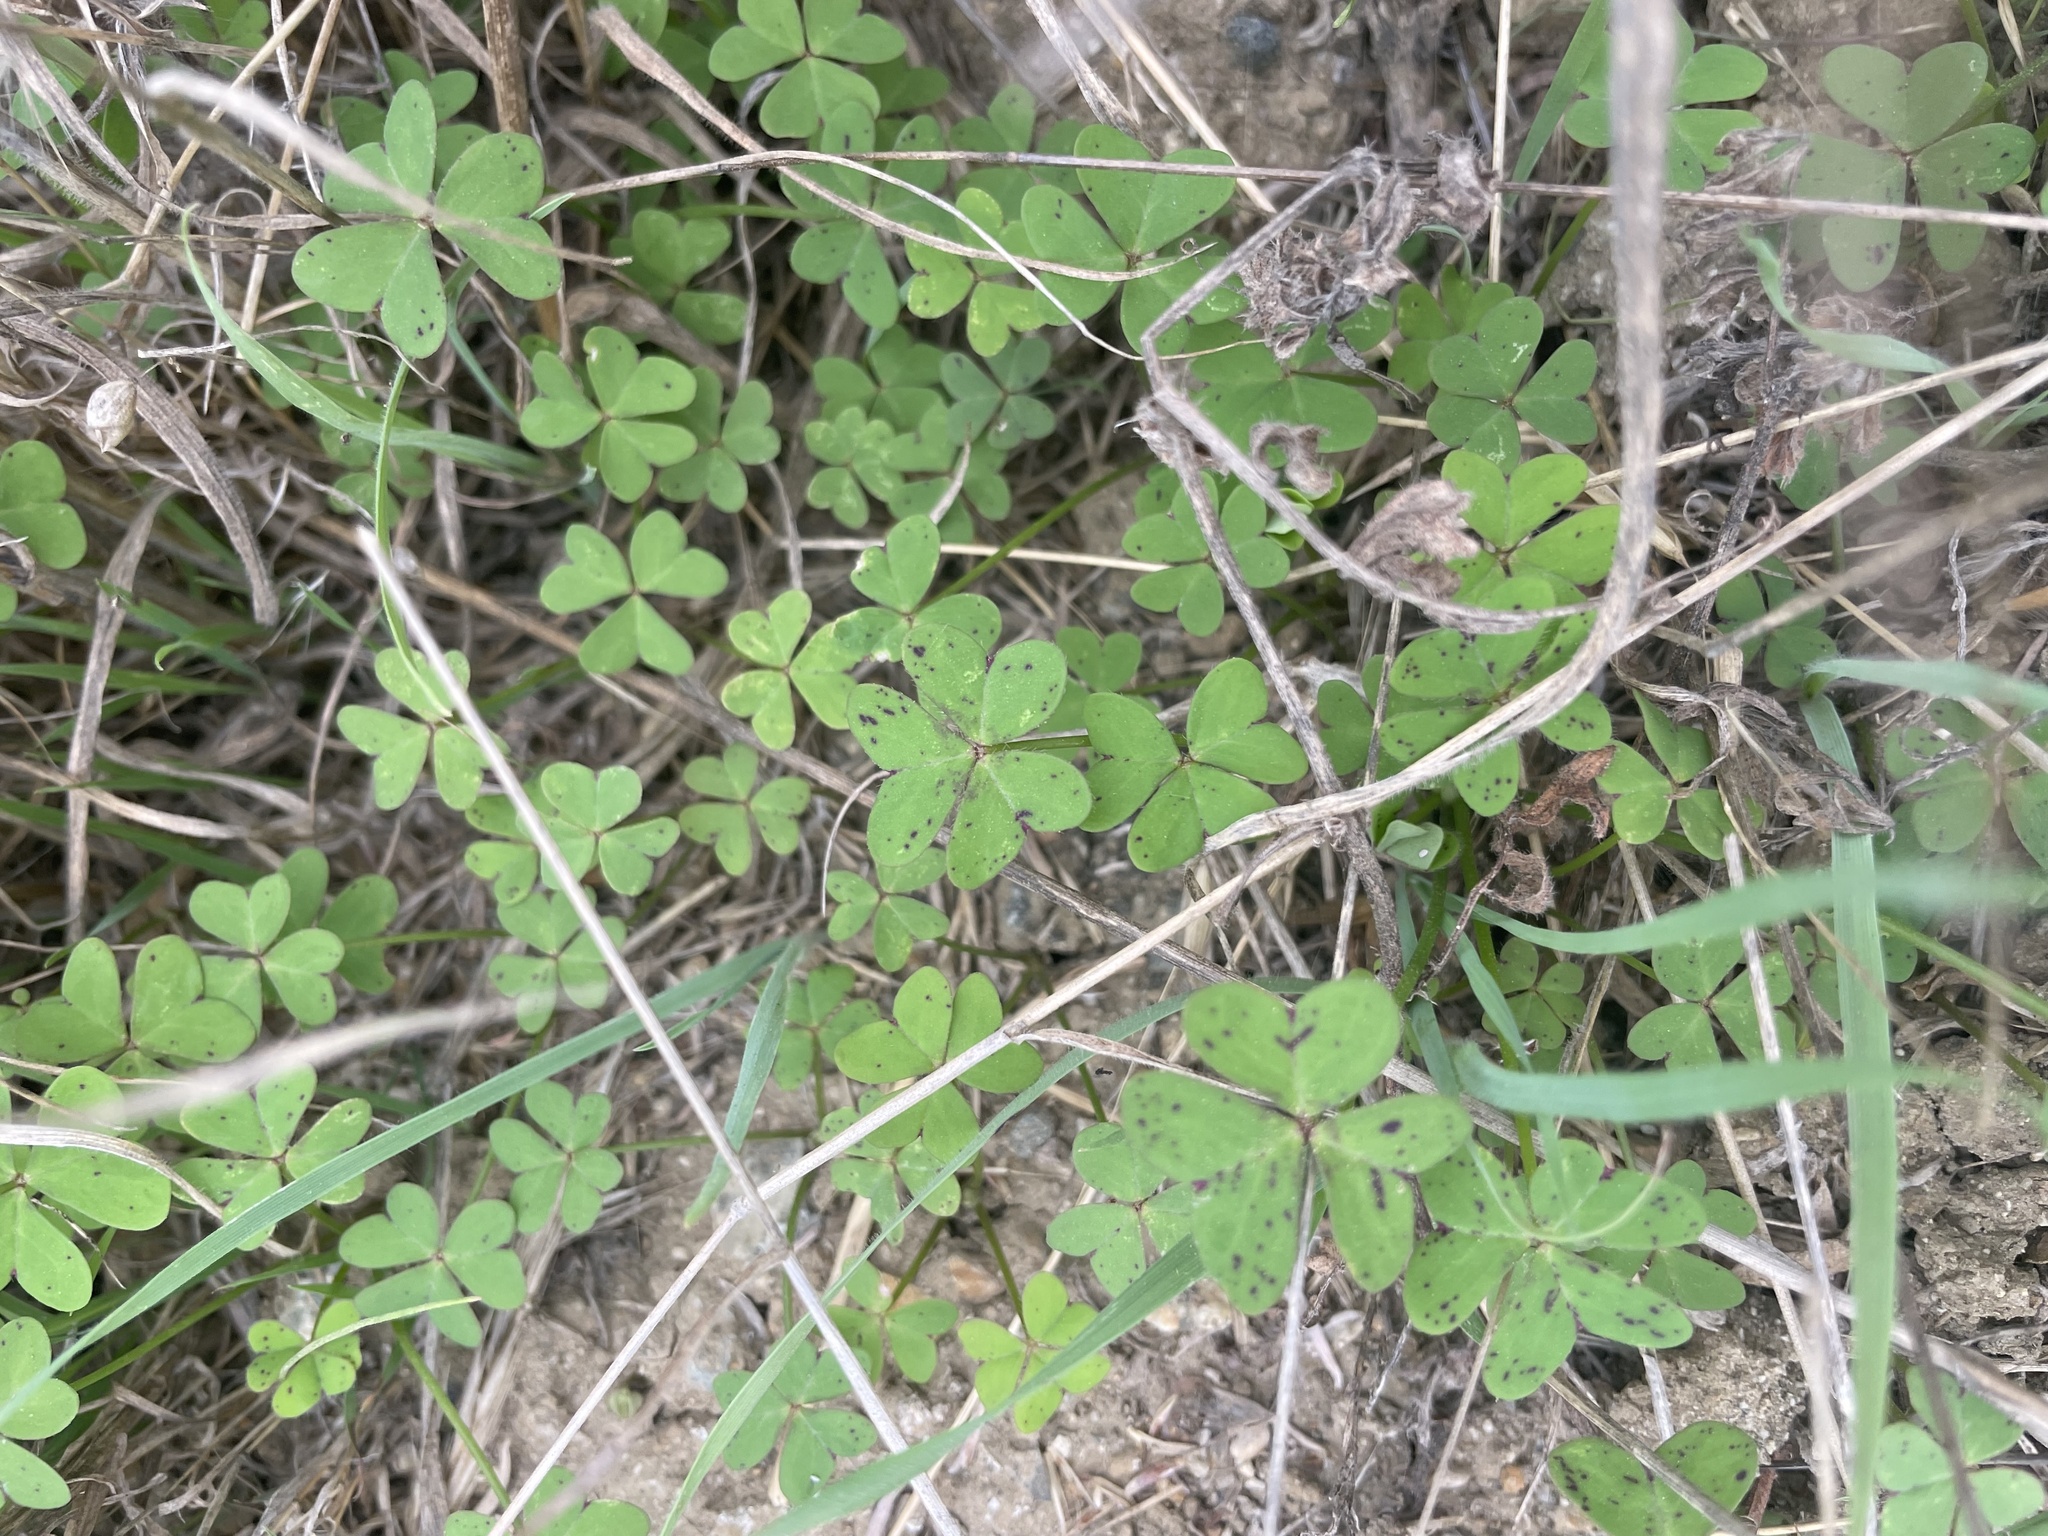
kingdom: Plantae
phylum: Tracheophyta
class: Magnoliopsida
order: Oxalidales
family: Oxalidaceae
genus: Oxalis
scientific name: Oxalis pes-caprae
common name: Bermuda-buttercup
